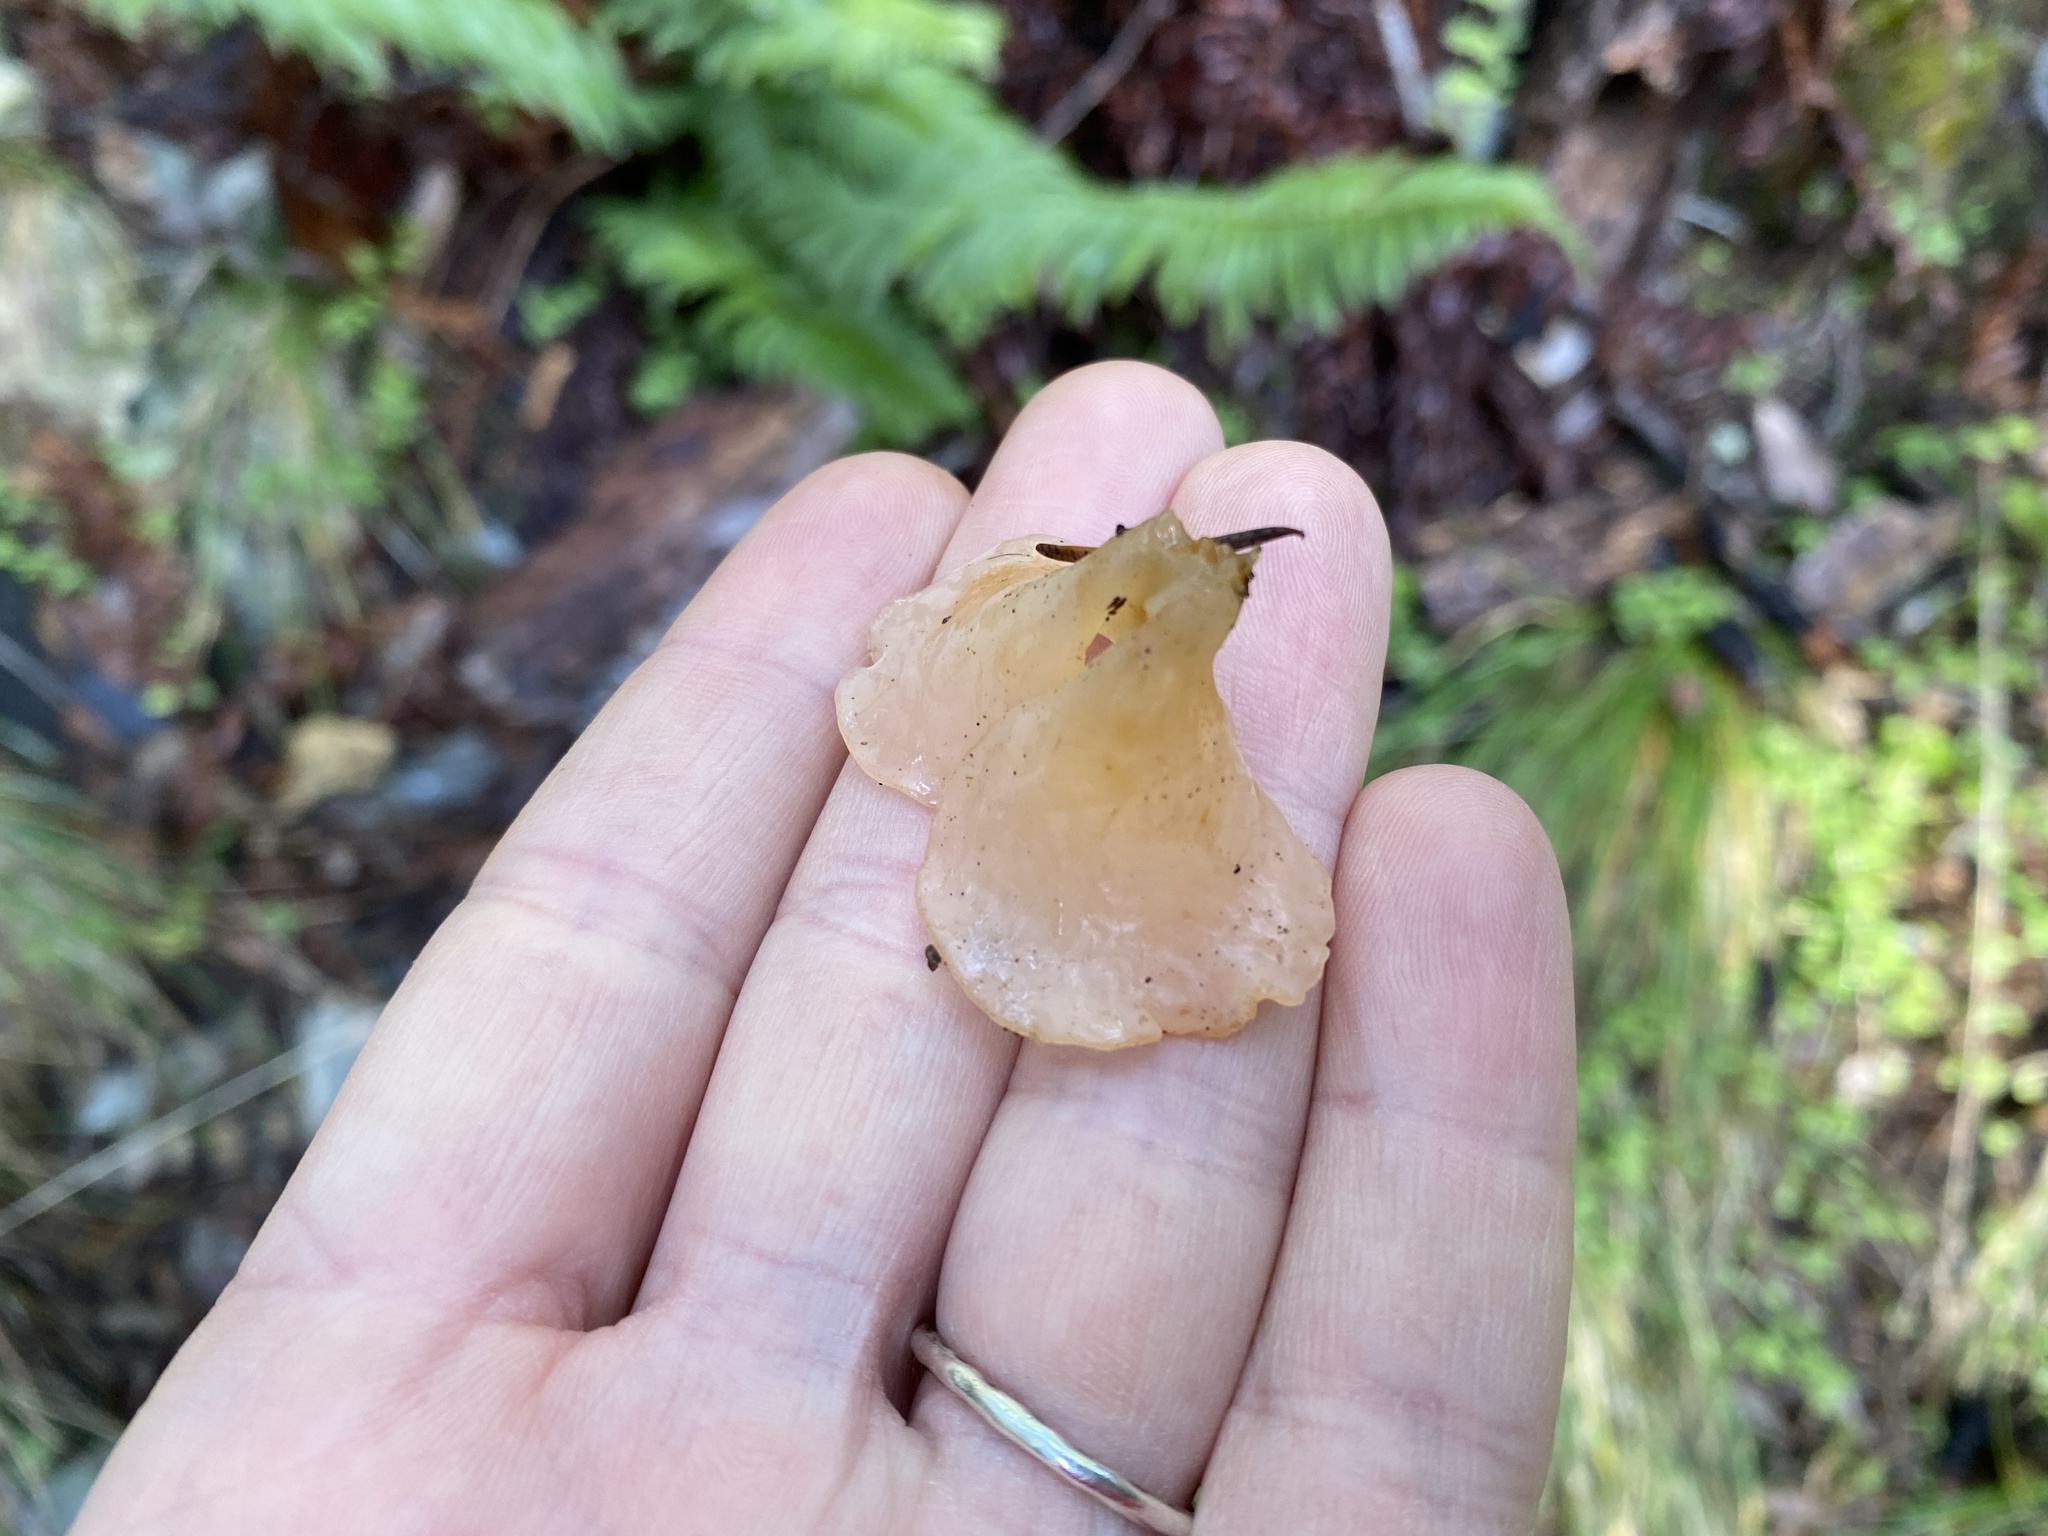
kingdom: Fungi
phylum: Basidiomycota
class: Agaricomycetes
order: Auriculariales
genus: Guepinia
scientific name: Guepinia helvelloides
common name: Salmon salad
